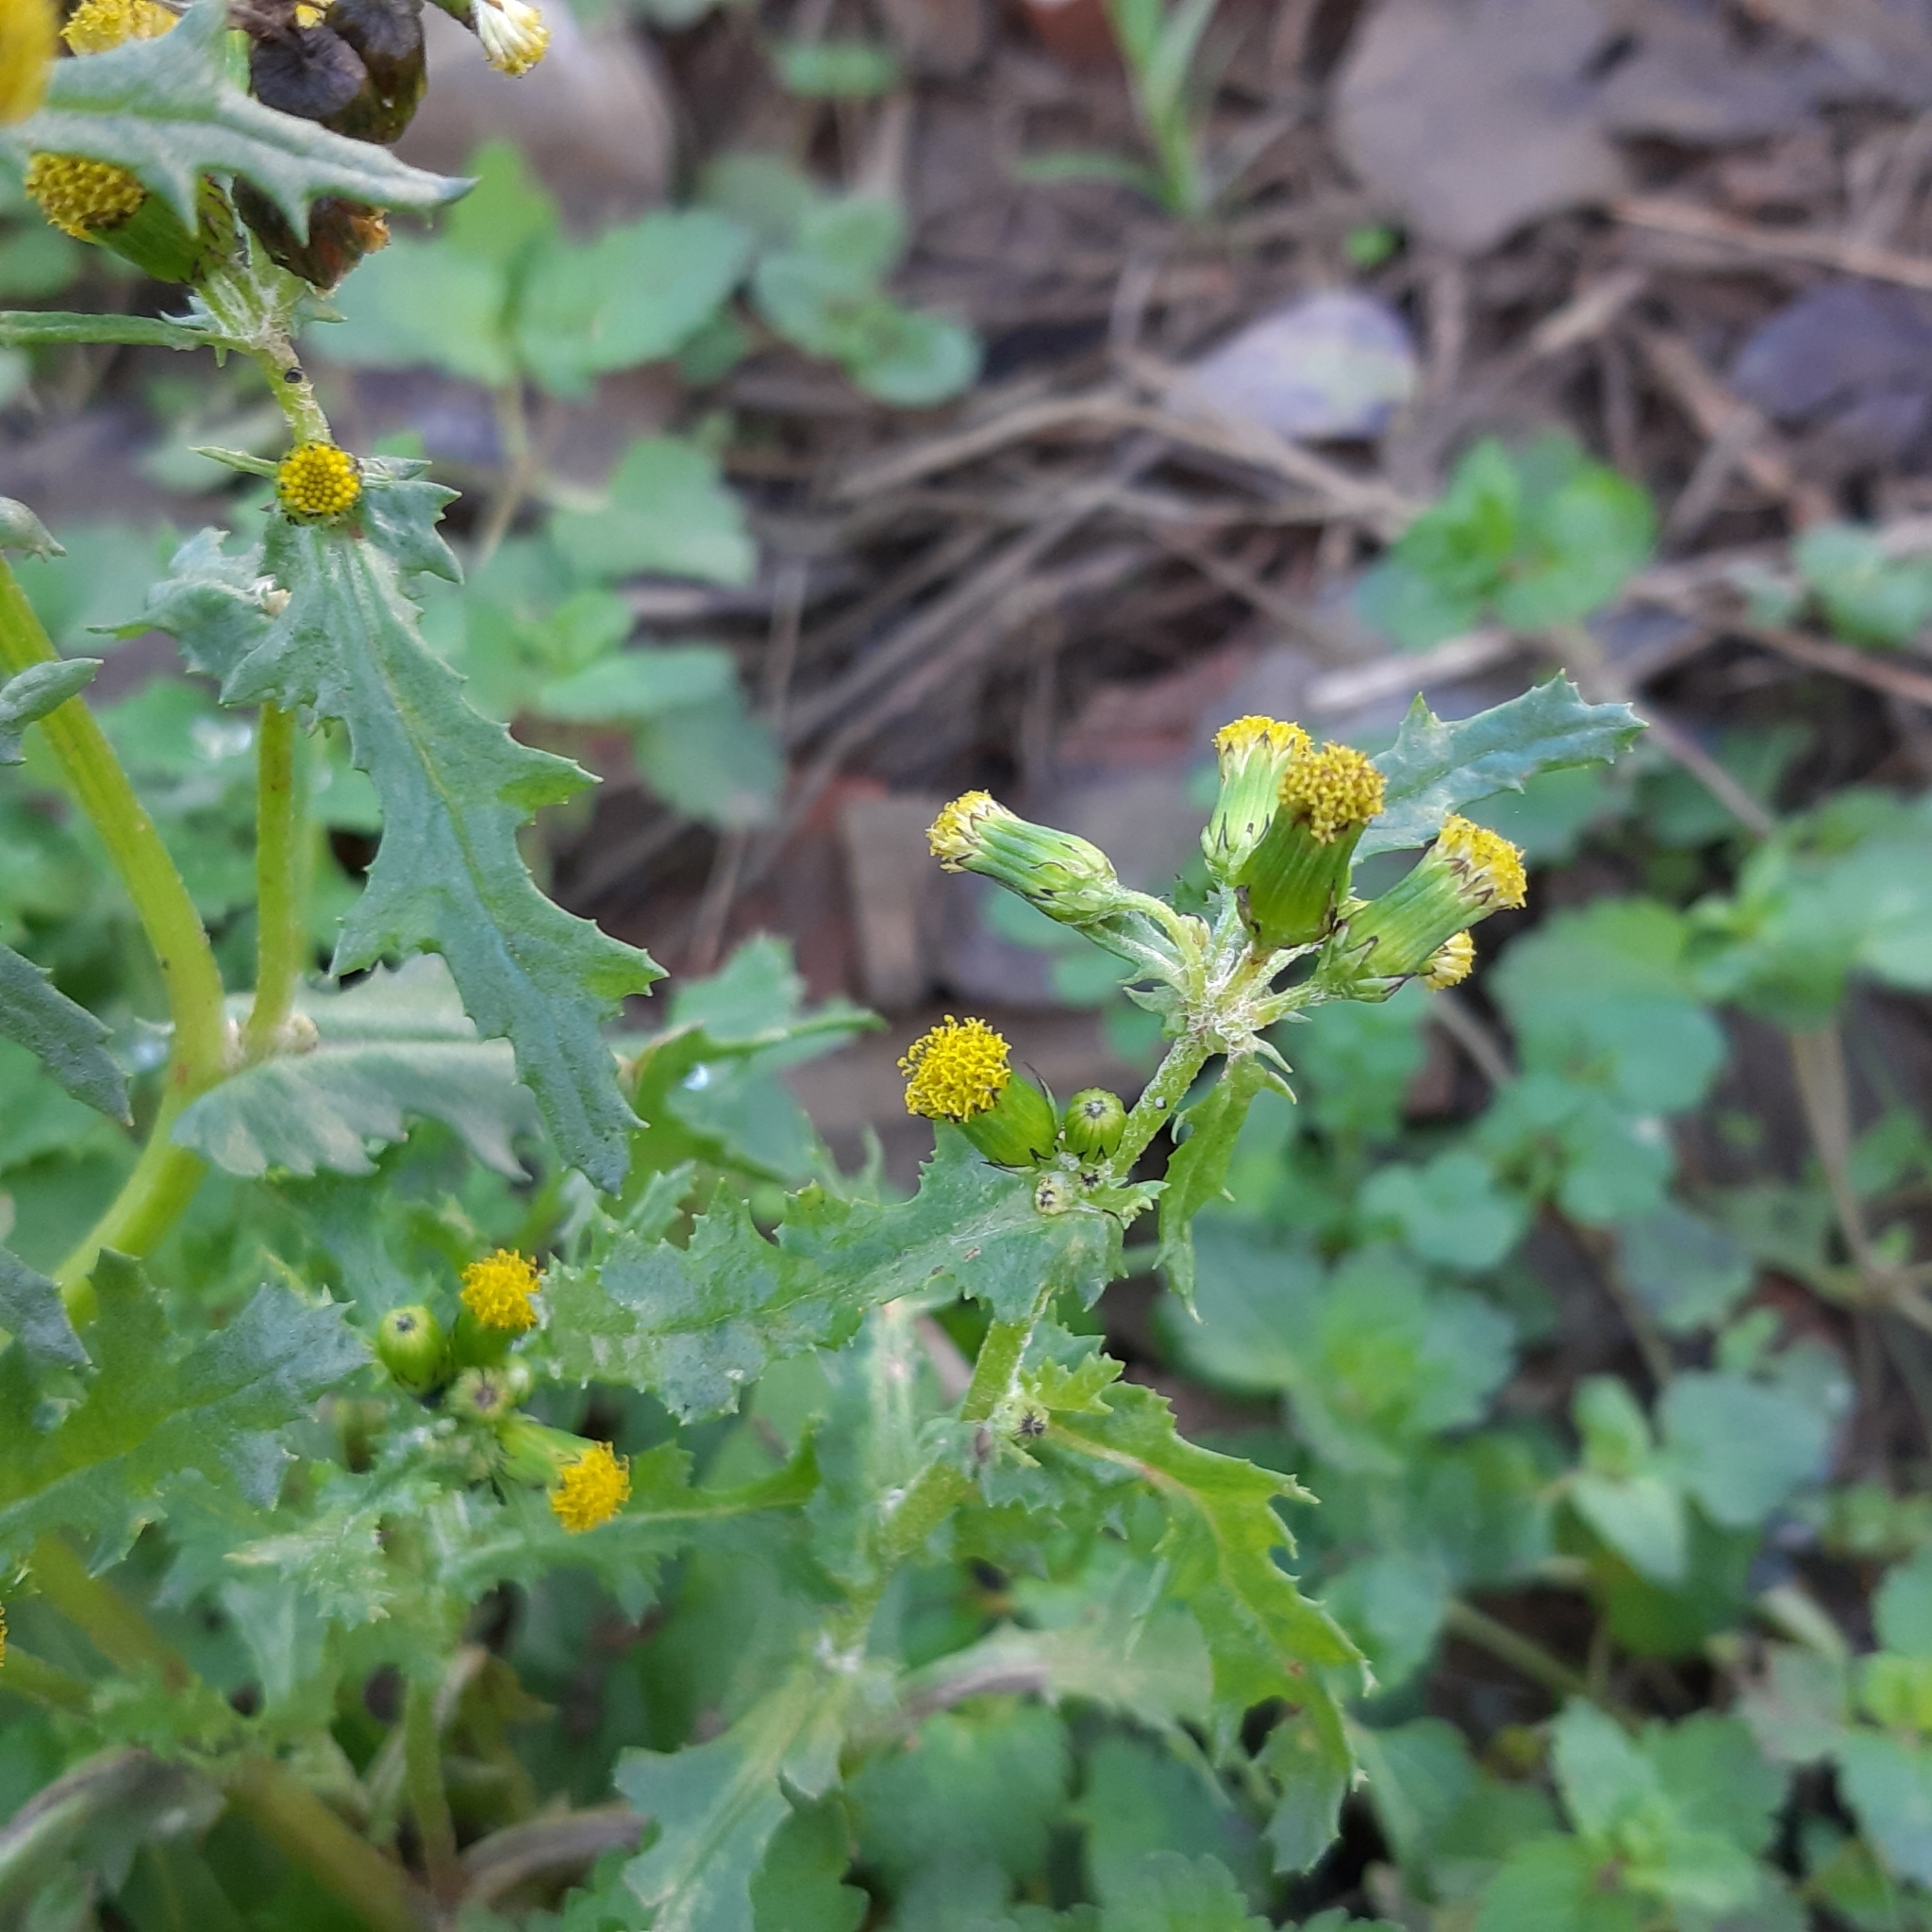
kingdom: Plantae
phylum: Tracheophyta
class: Magnoliopsida
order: Asterales
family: Asteraceae
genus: Senecio
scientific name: Senecio vulgaris
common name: Old-man-in-the-spring
